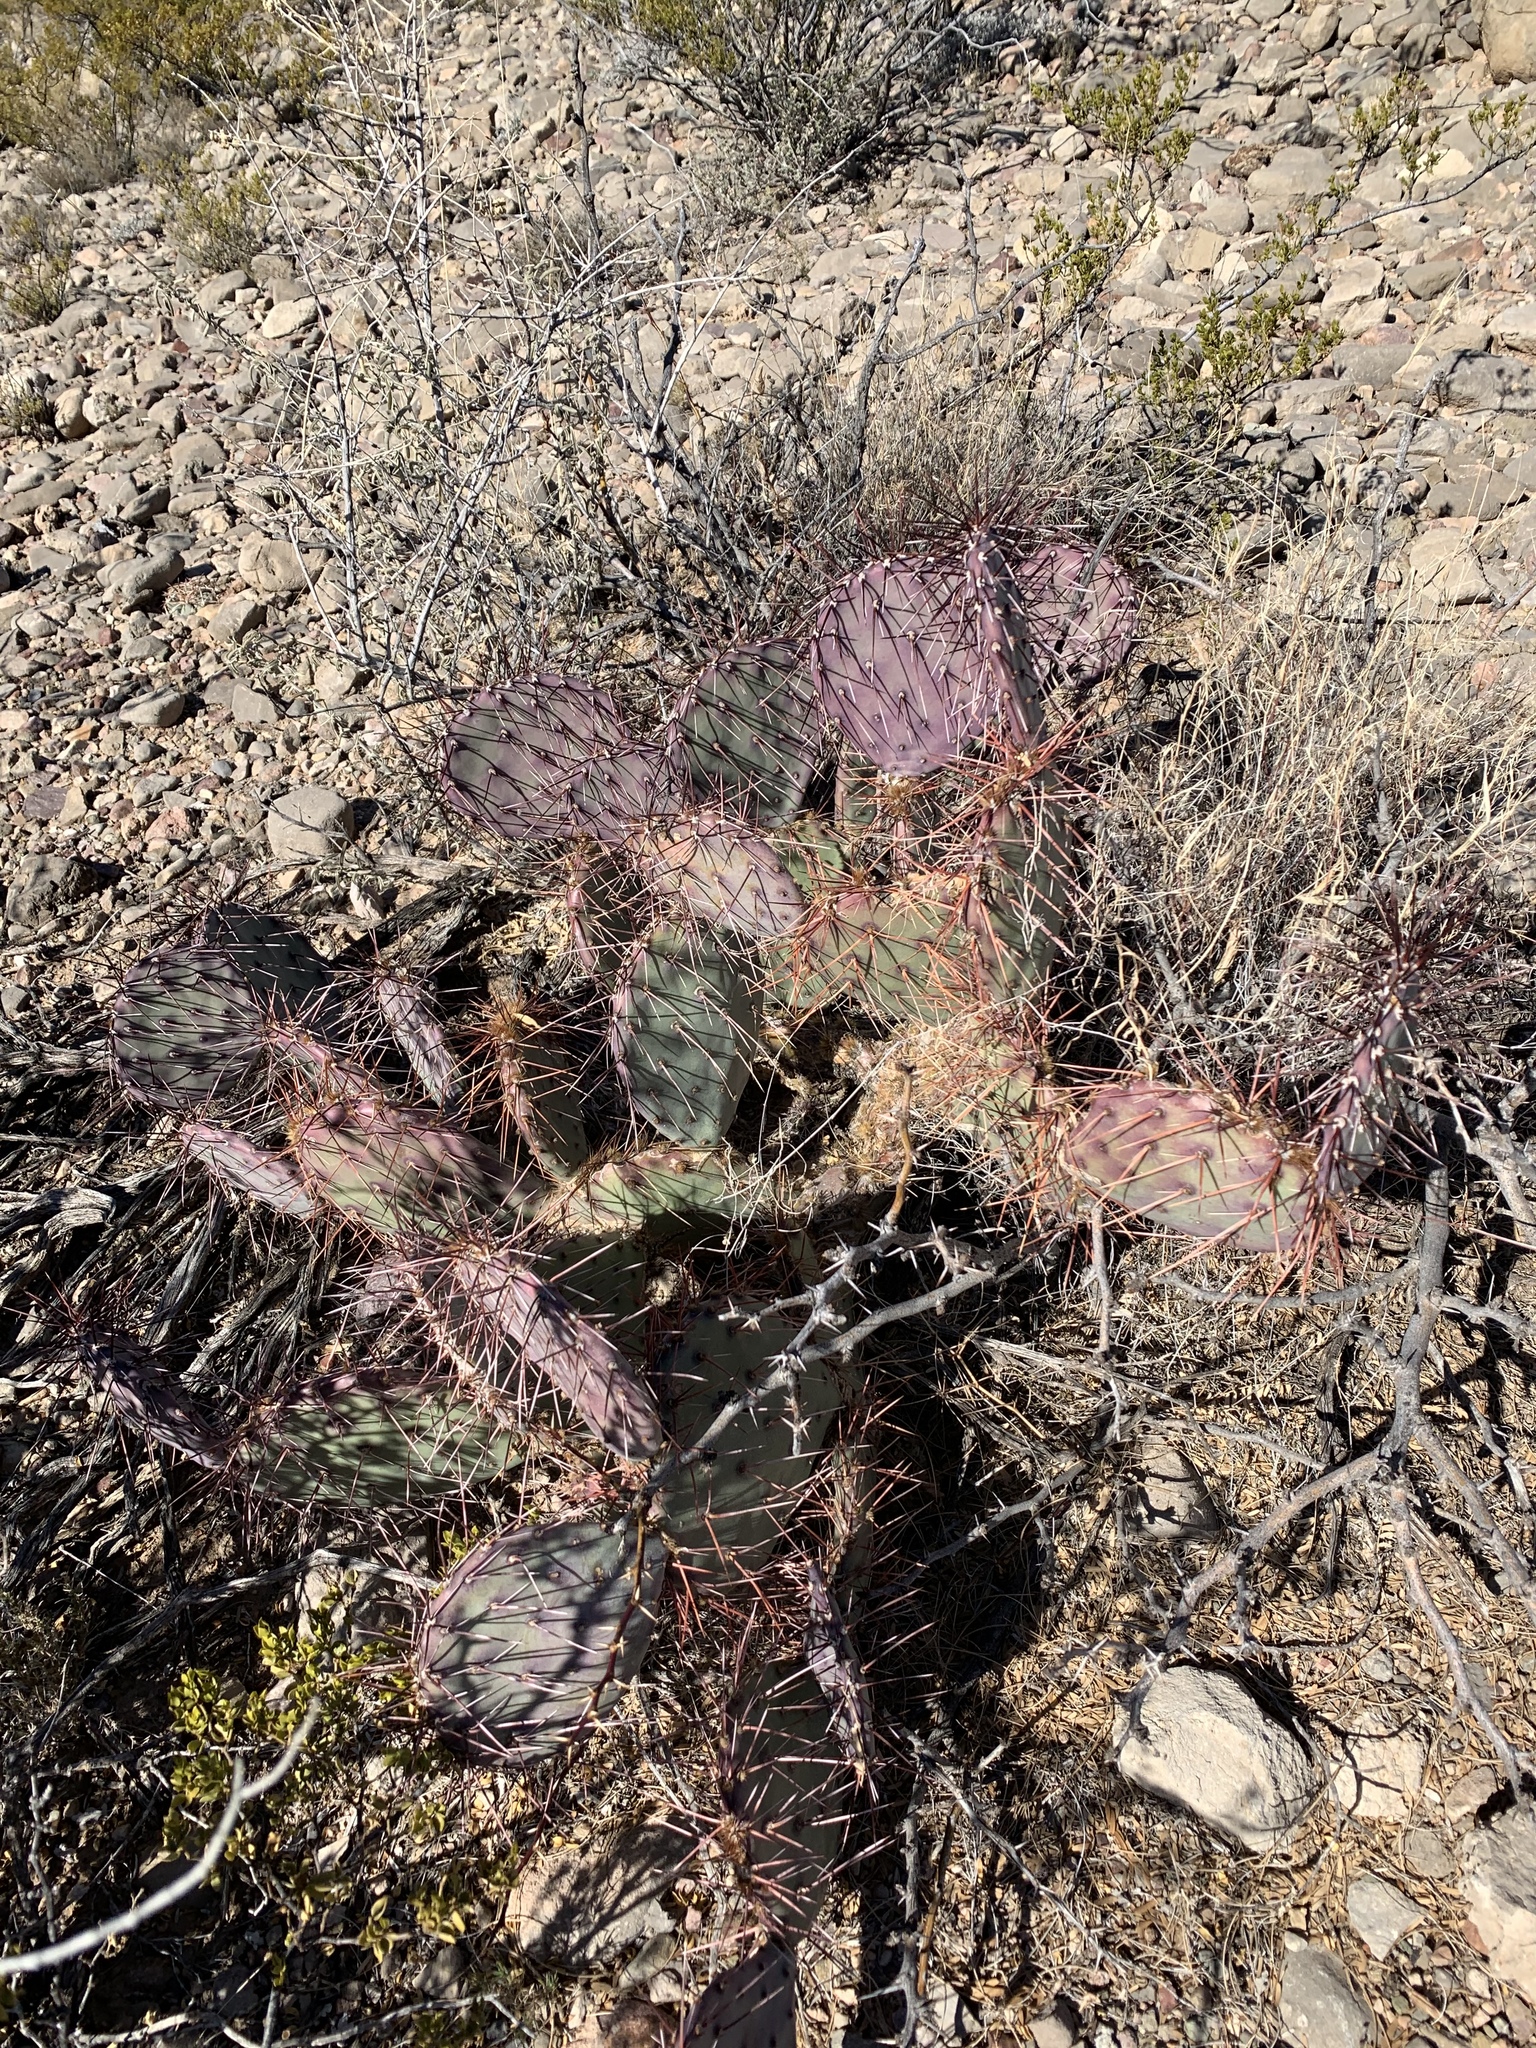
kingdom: Plantae
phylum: Tracheophyta
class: Magnoliopsida
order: Caryophyllales
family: Cactaceae
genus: Opuntia
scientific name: Opuntia macrocentra
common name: Purple prickly-pear
